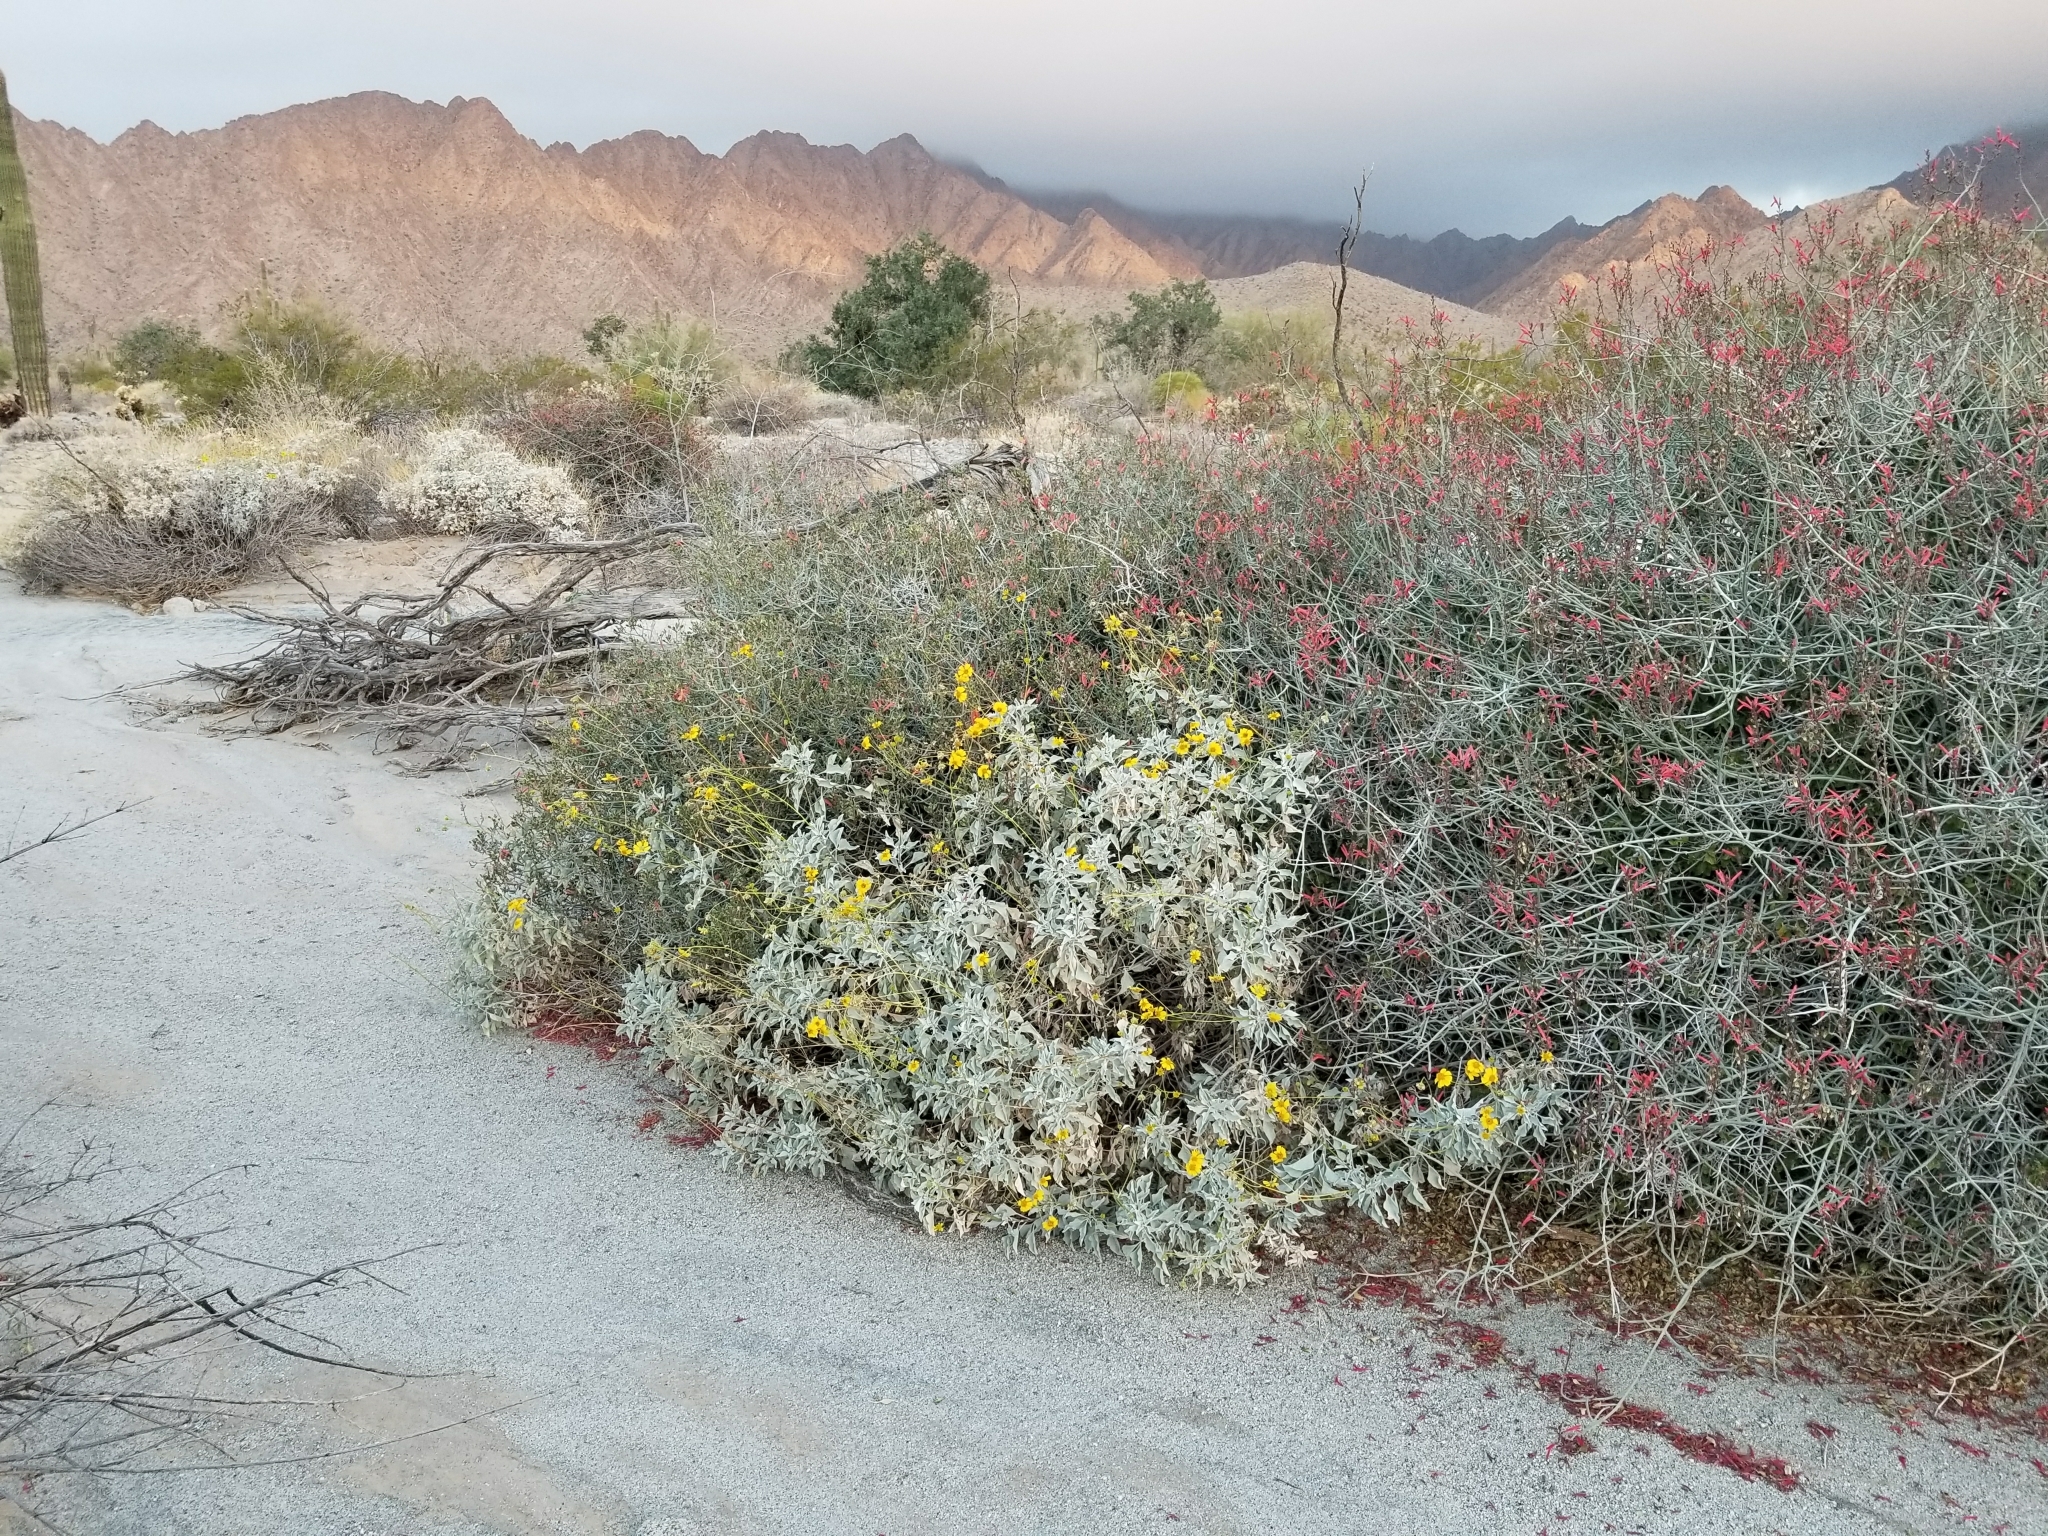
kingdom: Plantae
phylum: Tracheophyta
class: Magnoliopsida
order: Asterales
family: Asteraceae
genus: Encelia
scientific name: Encelia farinosa
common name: Brittlebush
